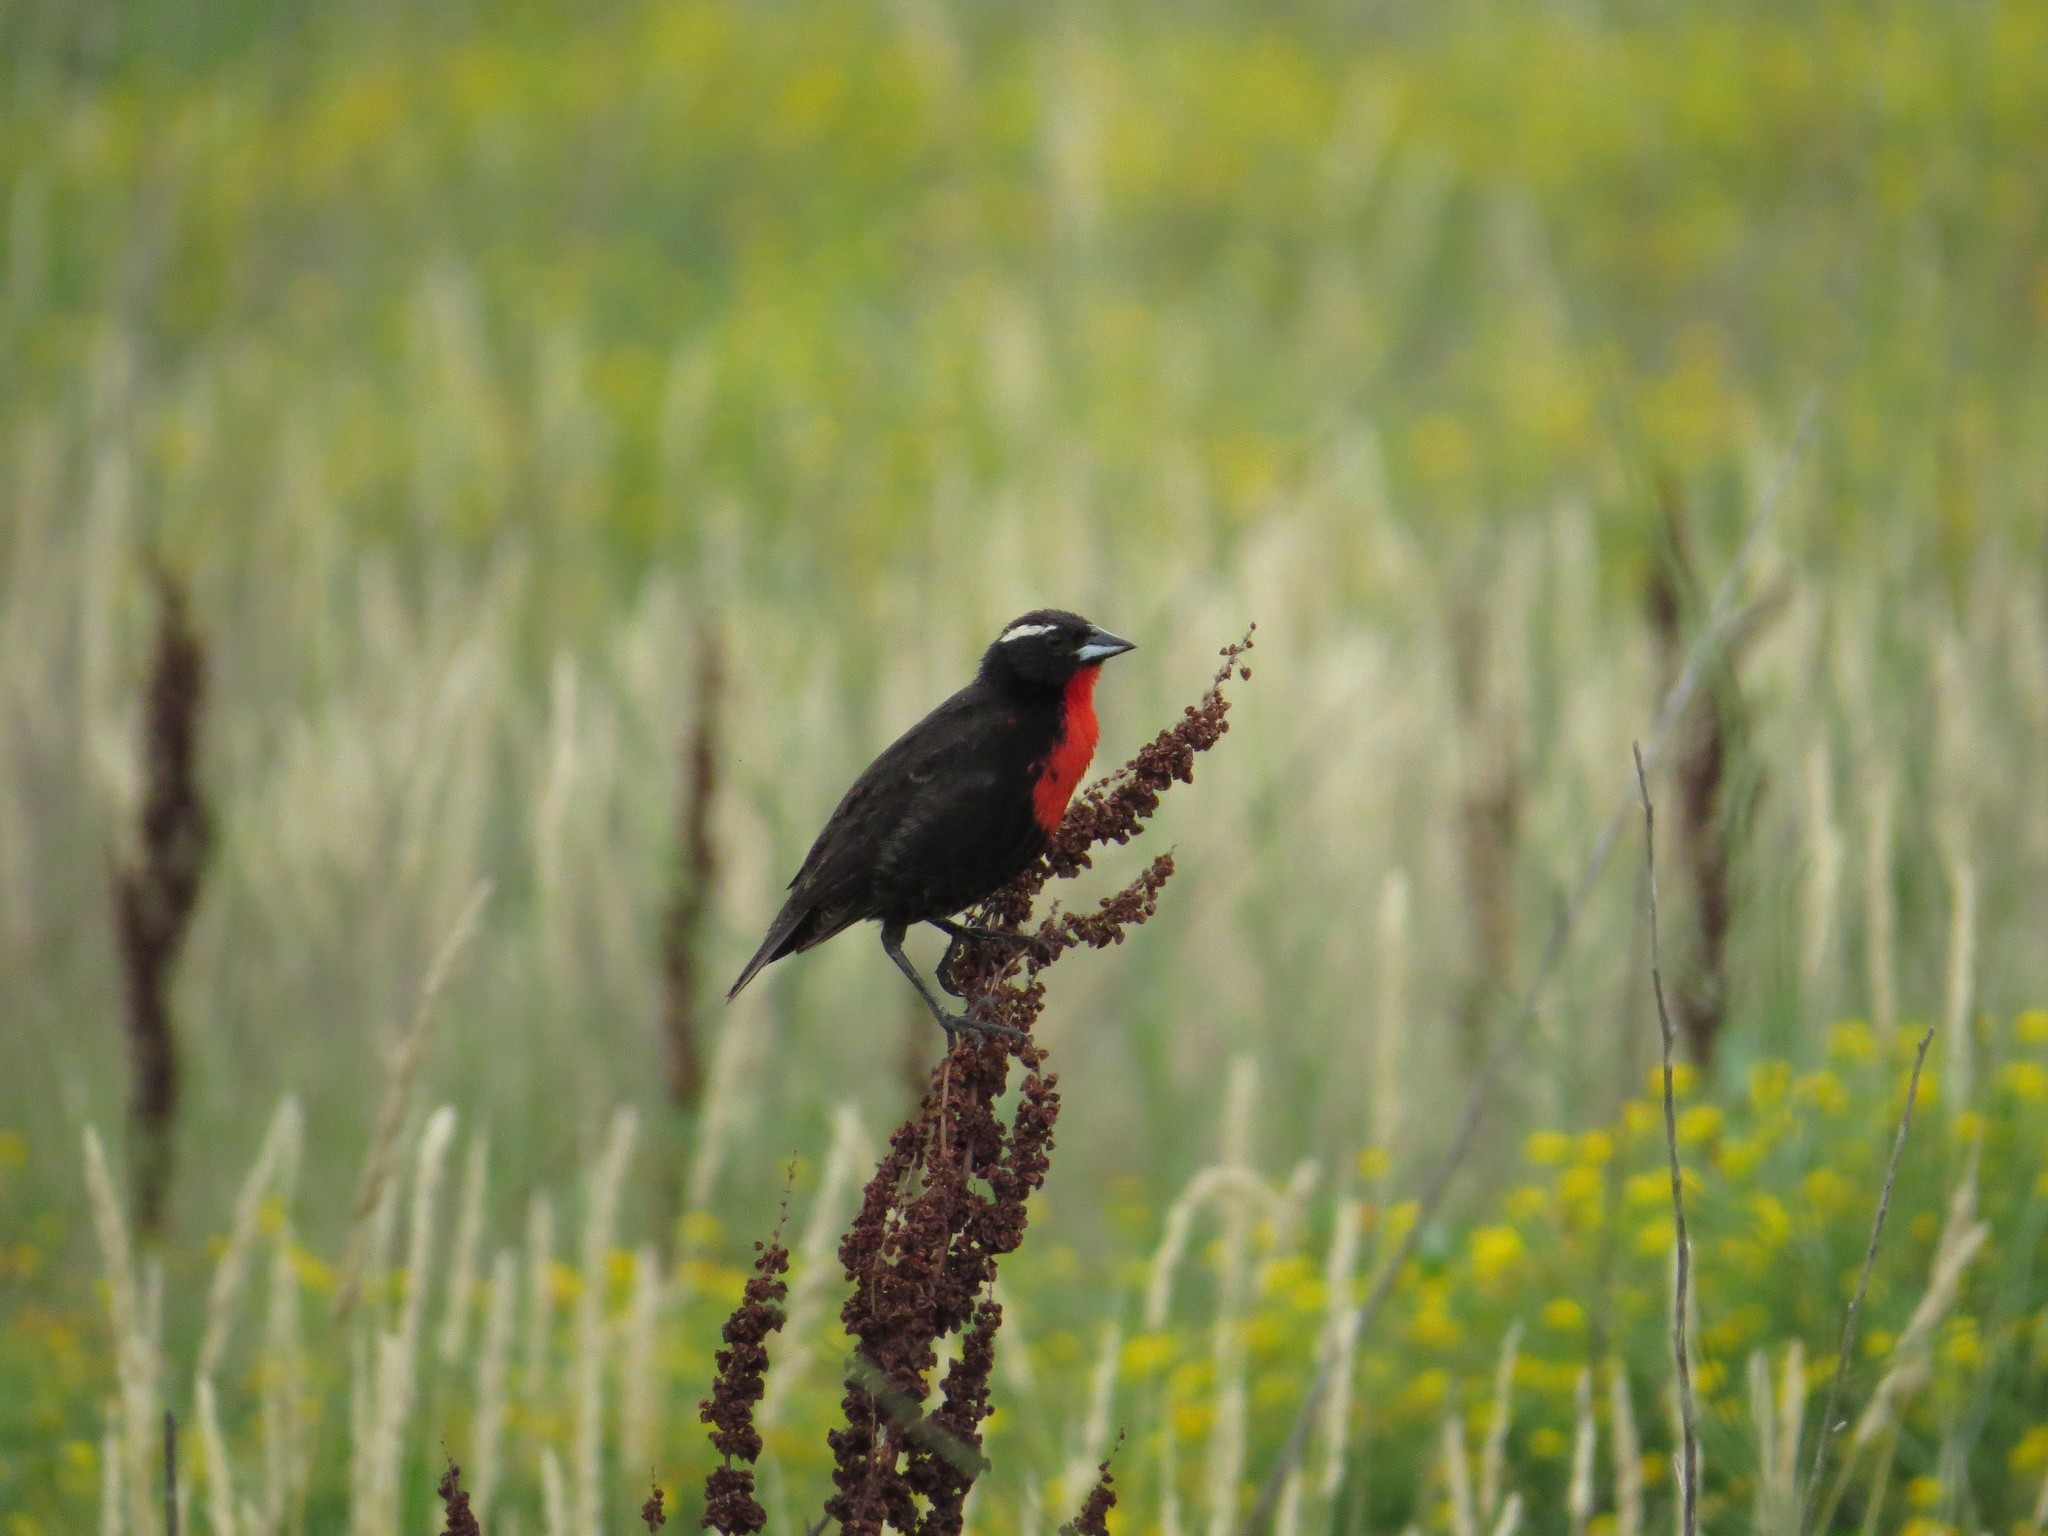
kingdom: Animalia
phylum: Chordata
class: Aves
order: Passeriformes
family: Icteridae
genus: Sturnella
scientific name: Sturnella superciliaris
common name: White-browed blackbird
